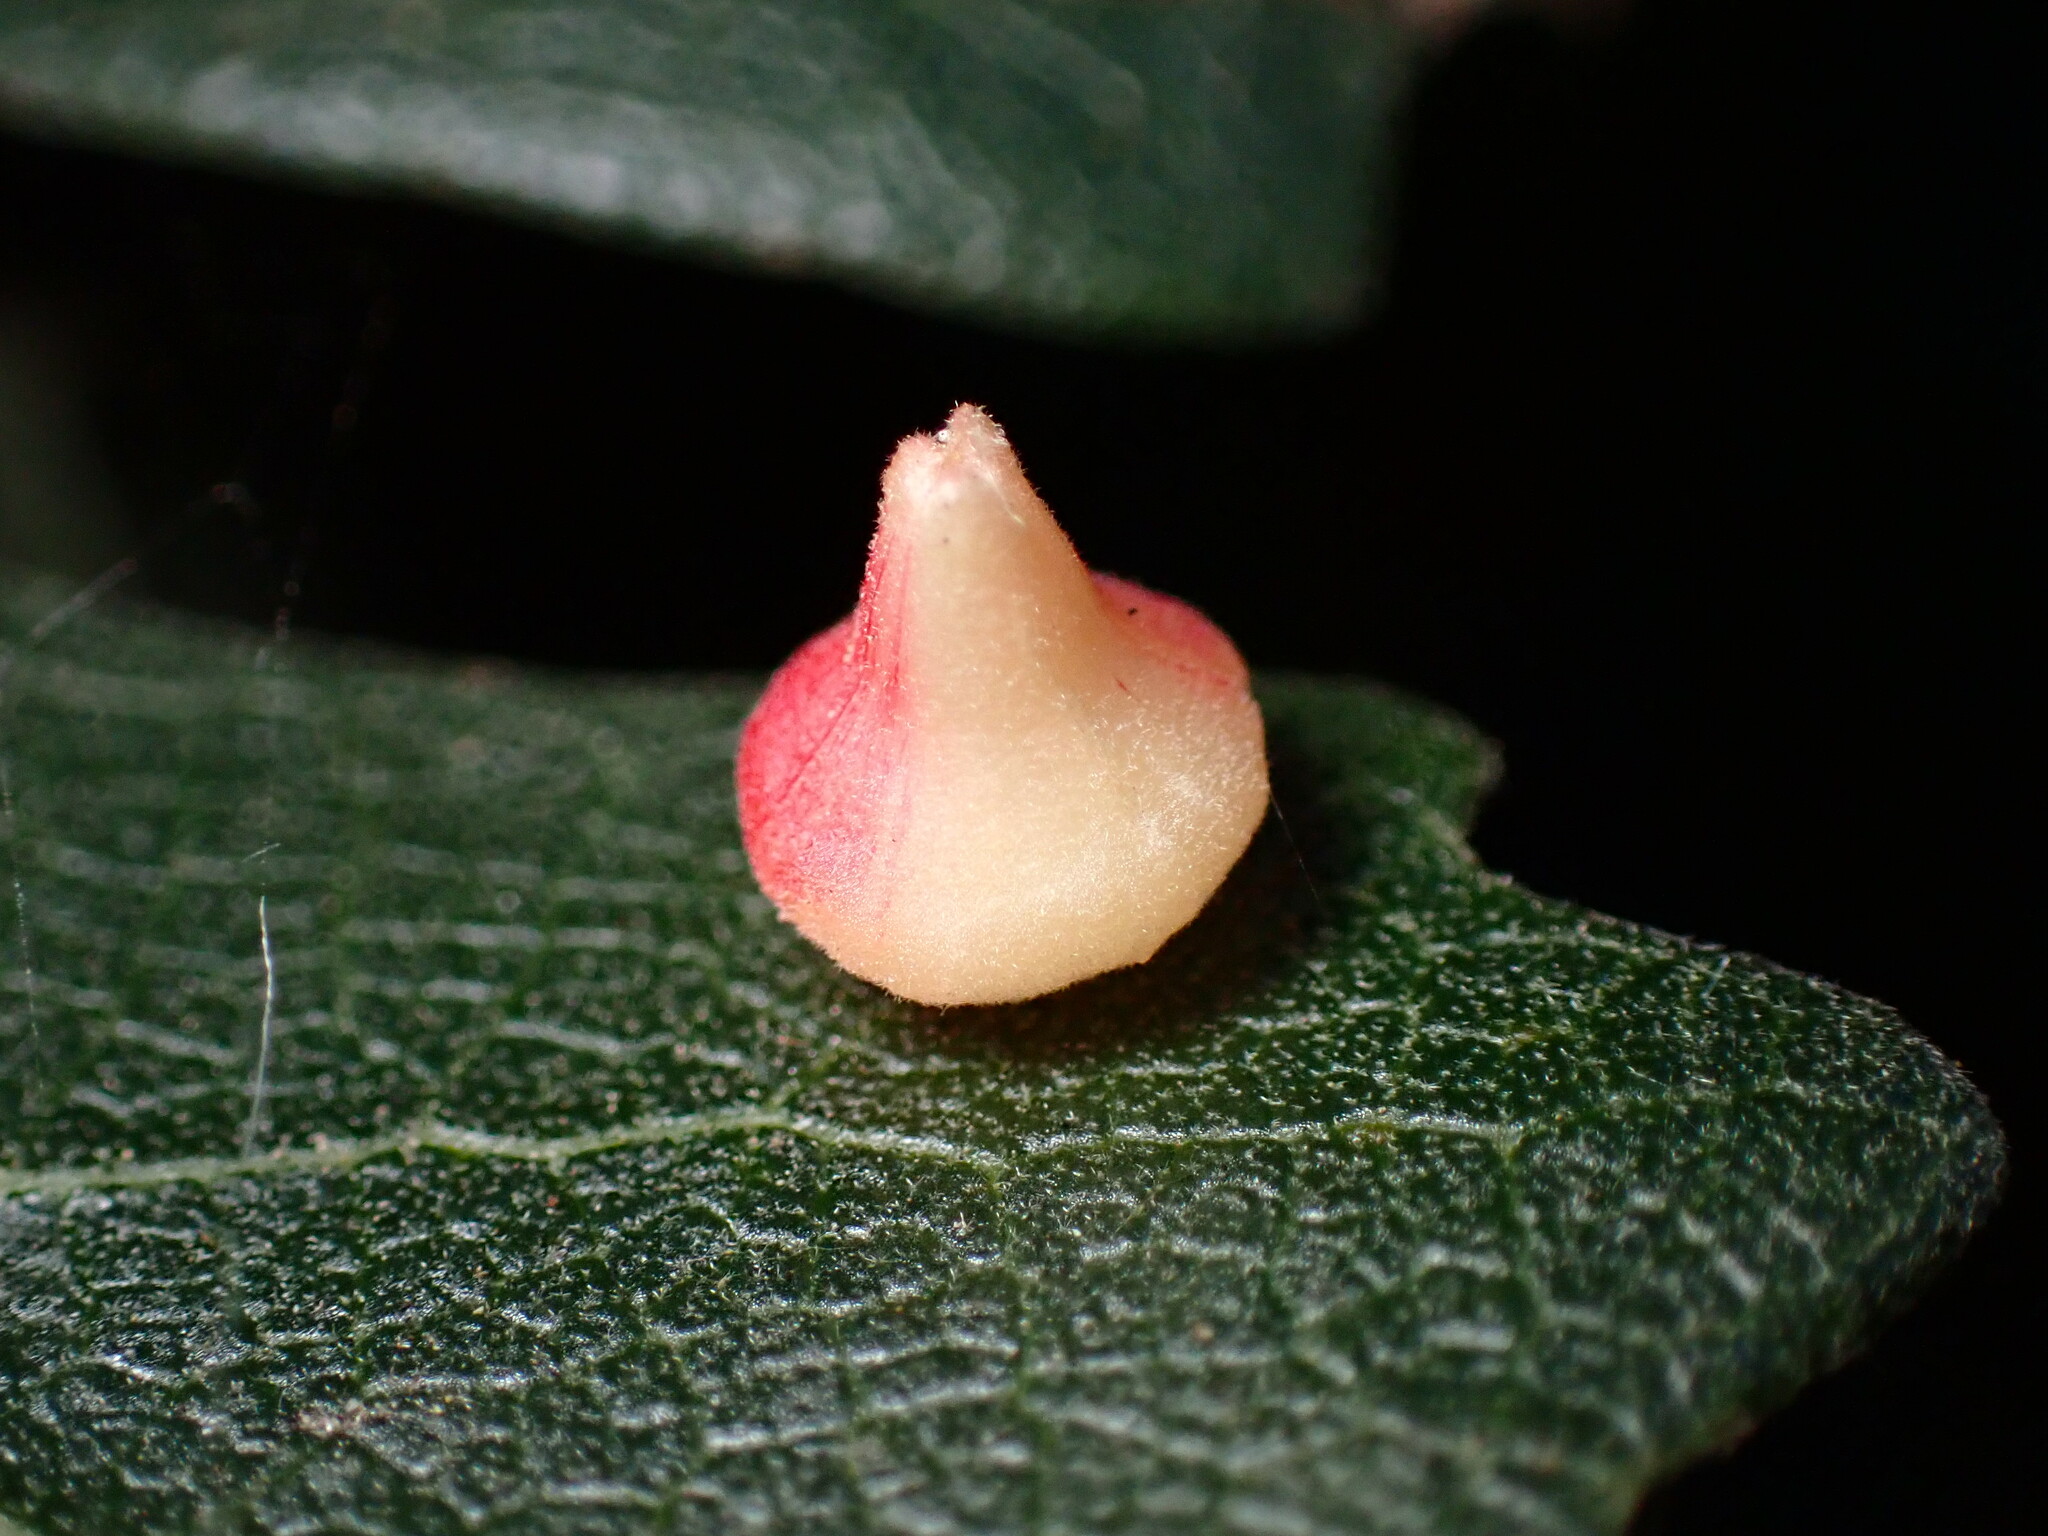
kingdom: Animalia
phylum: Arthropoda
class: Insecta
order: Hymenoptera
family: Cynipidae
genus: Andricus
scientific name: Andricus
